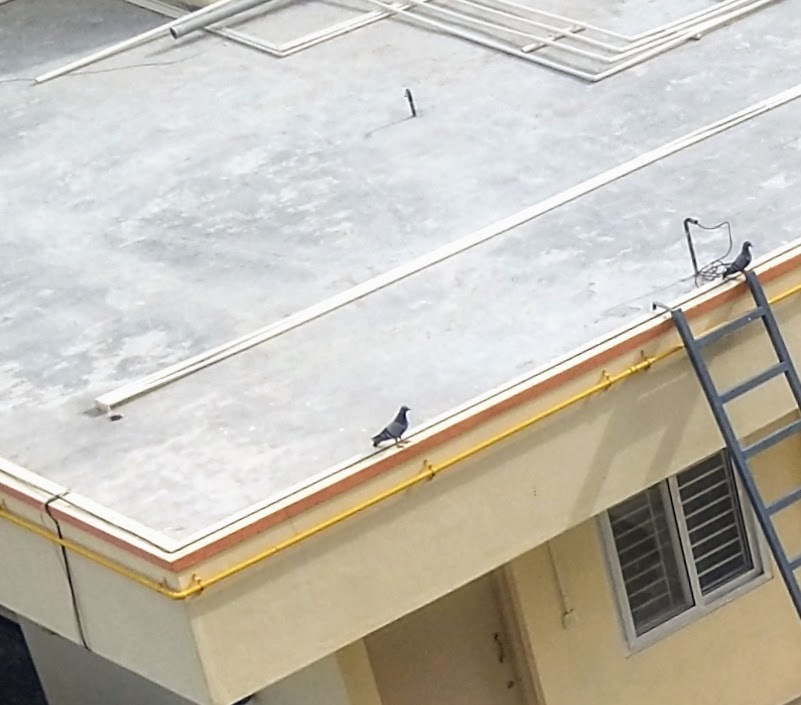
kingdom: Animalia
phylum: Chordata
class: Aves
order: Columbiformes
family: Columbidae
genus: Columba
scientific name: Columba livia
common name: Rock pigeon
